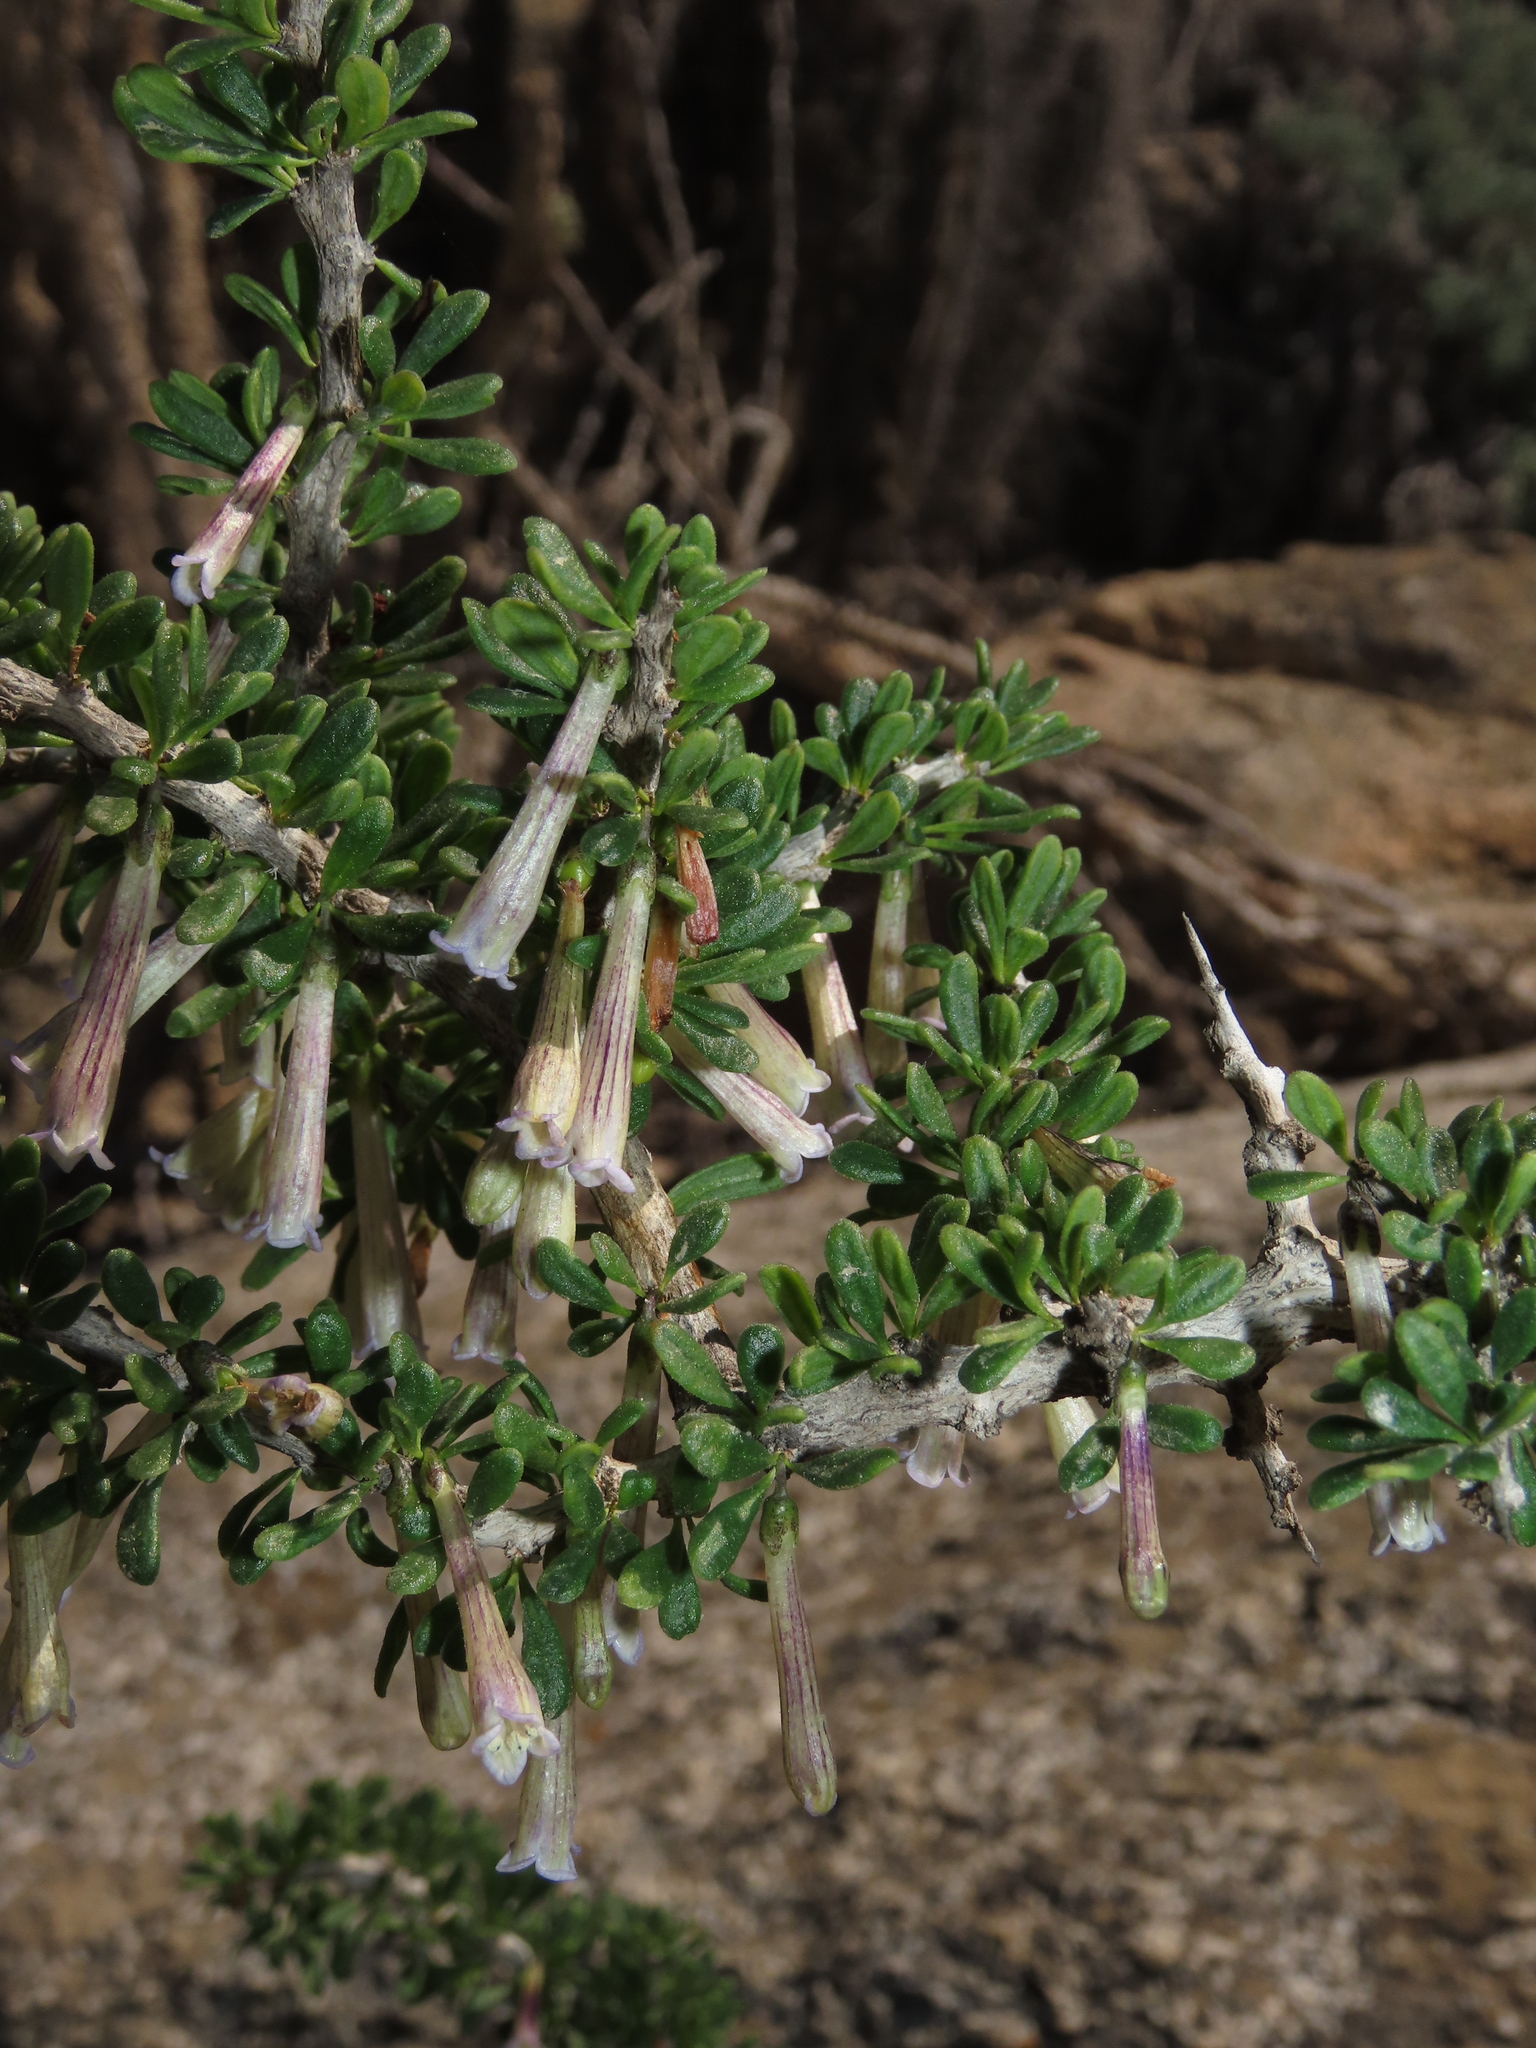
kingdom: Plantae
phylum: Tracheophyta
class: Magnoliopsida
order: Solanales
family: Solanaceae
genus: Lycium
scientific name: Lycium stenophyllum
